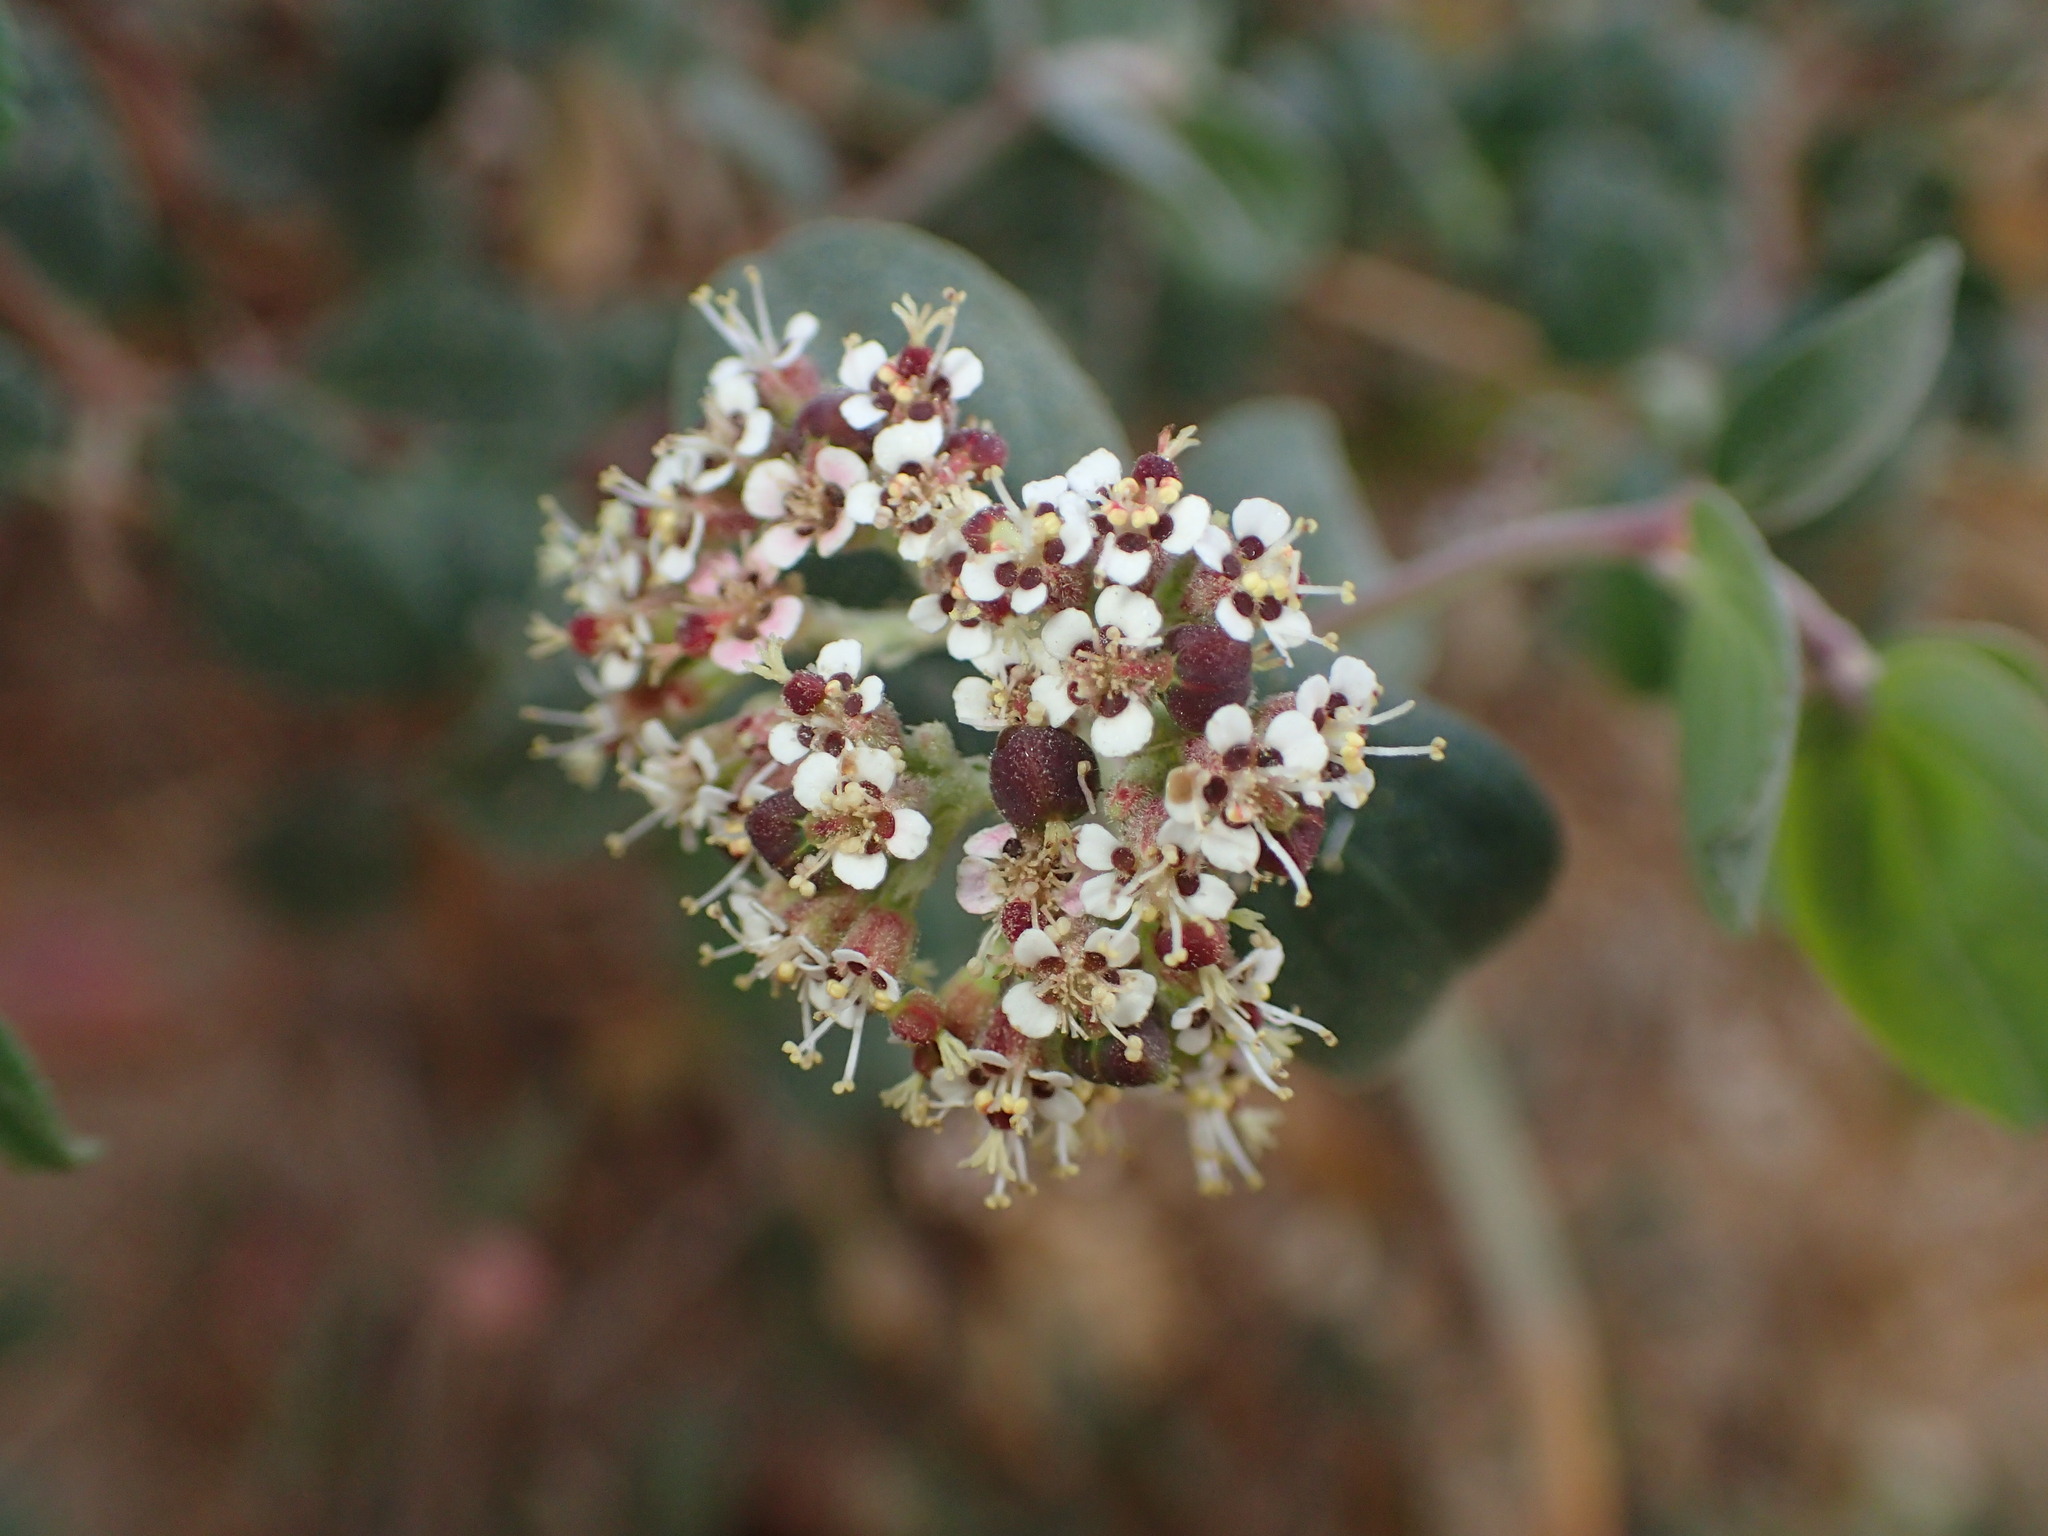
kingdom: Plantae
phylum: Tracheophyta
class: Magnoliopsida
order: Malpighiales
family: Euphorbiaceae
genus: Euphorbia
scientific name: Euphorbia tomentulosa
